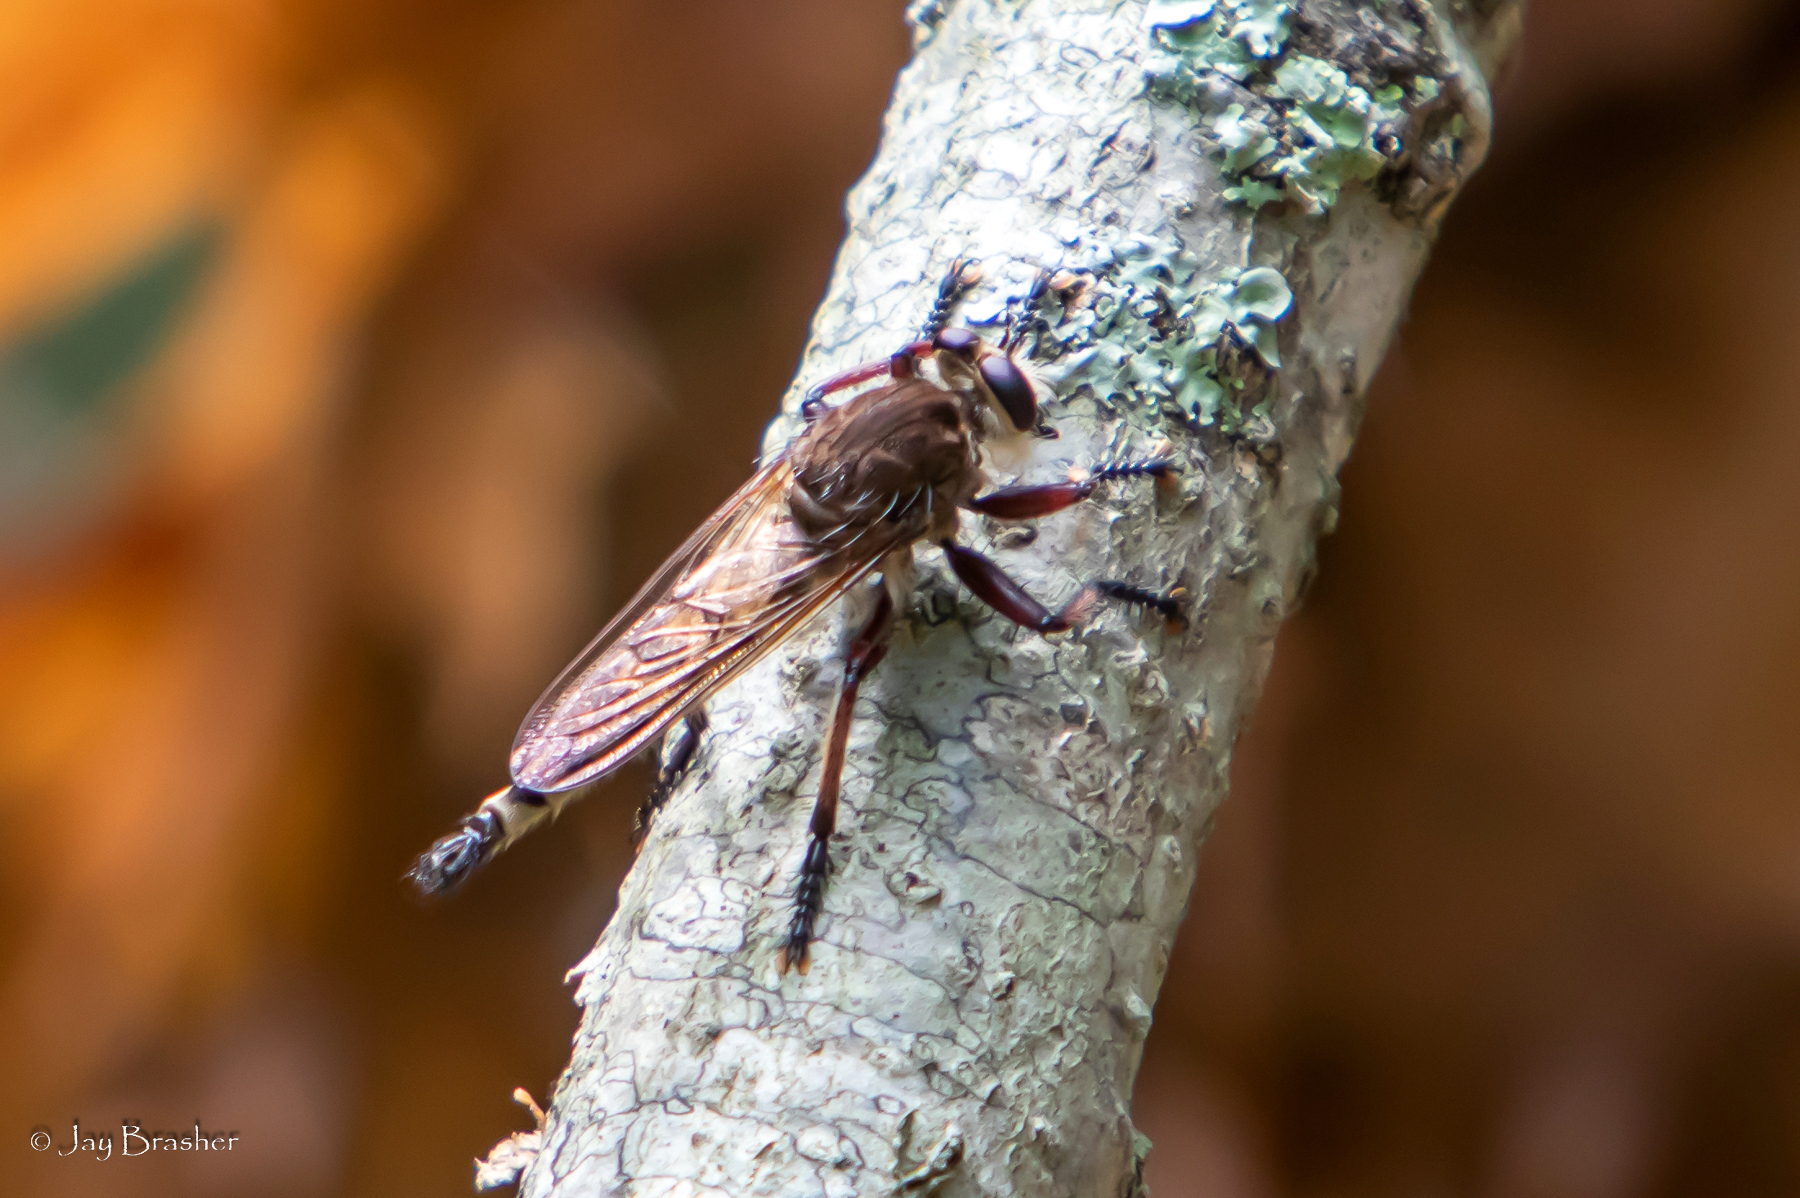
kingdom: Animalia
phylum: Arthropoda
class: Insecta
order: Diptera
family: Asilidae
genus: Promachus
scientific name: Promachus hinei
